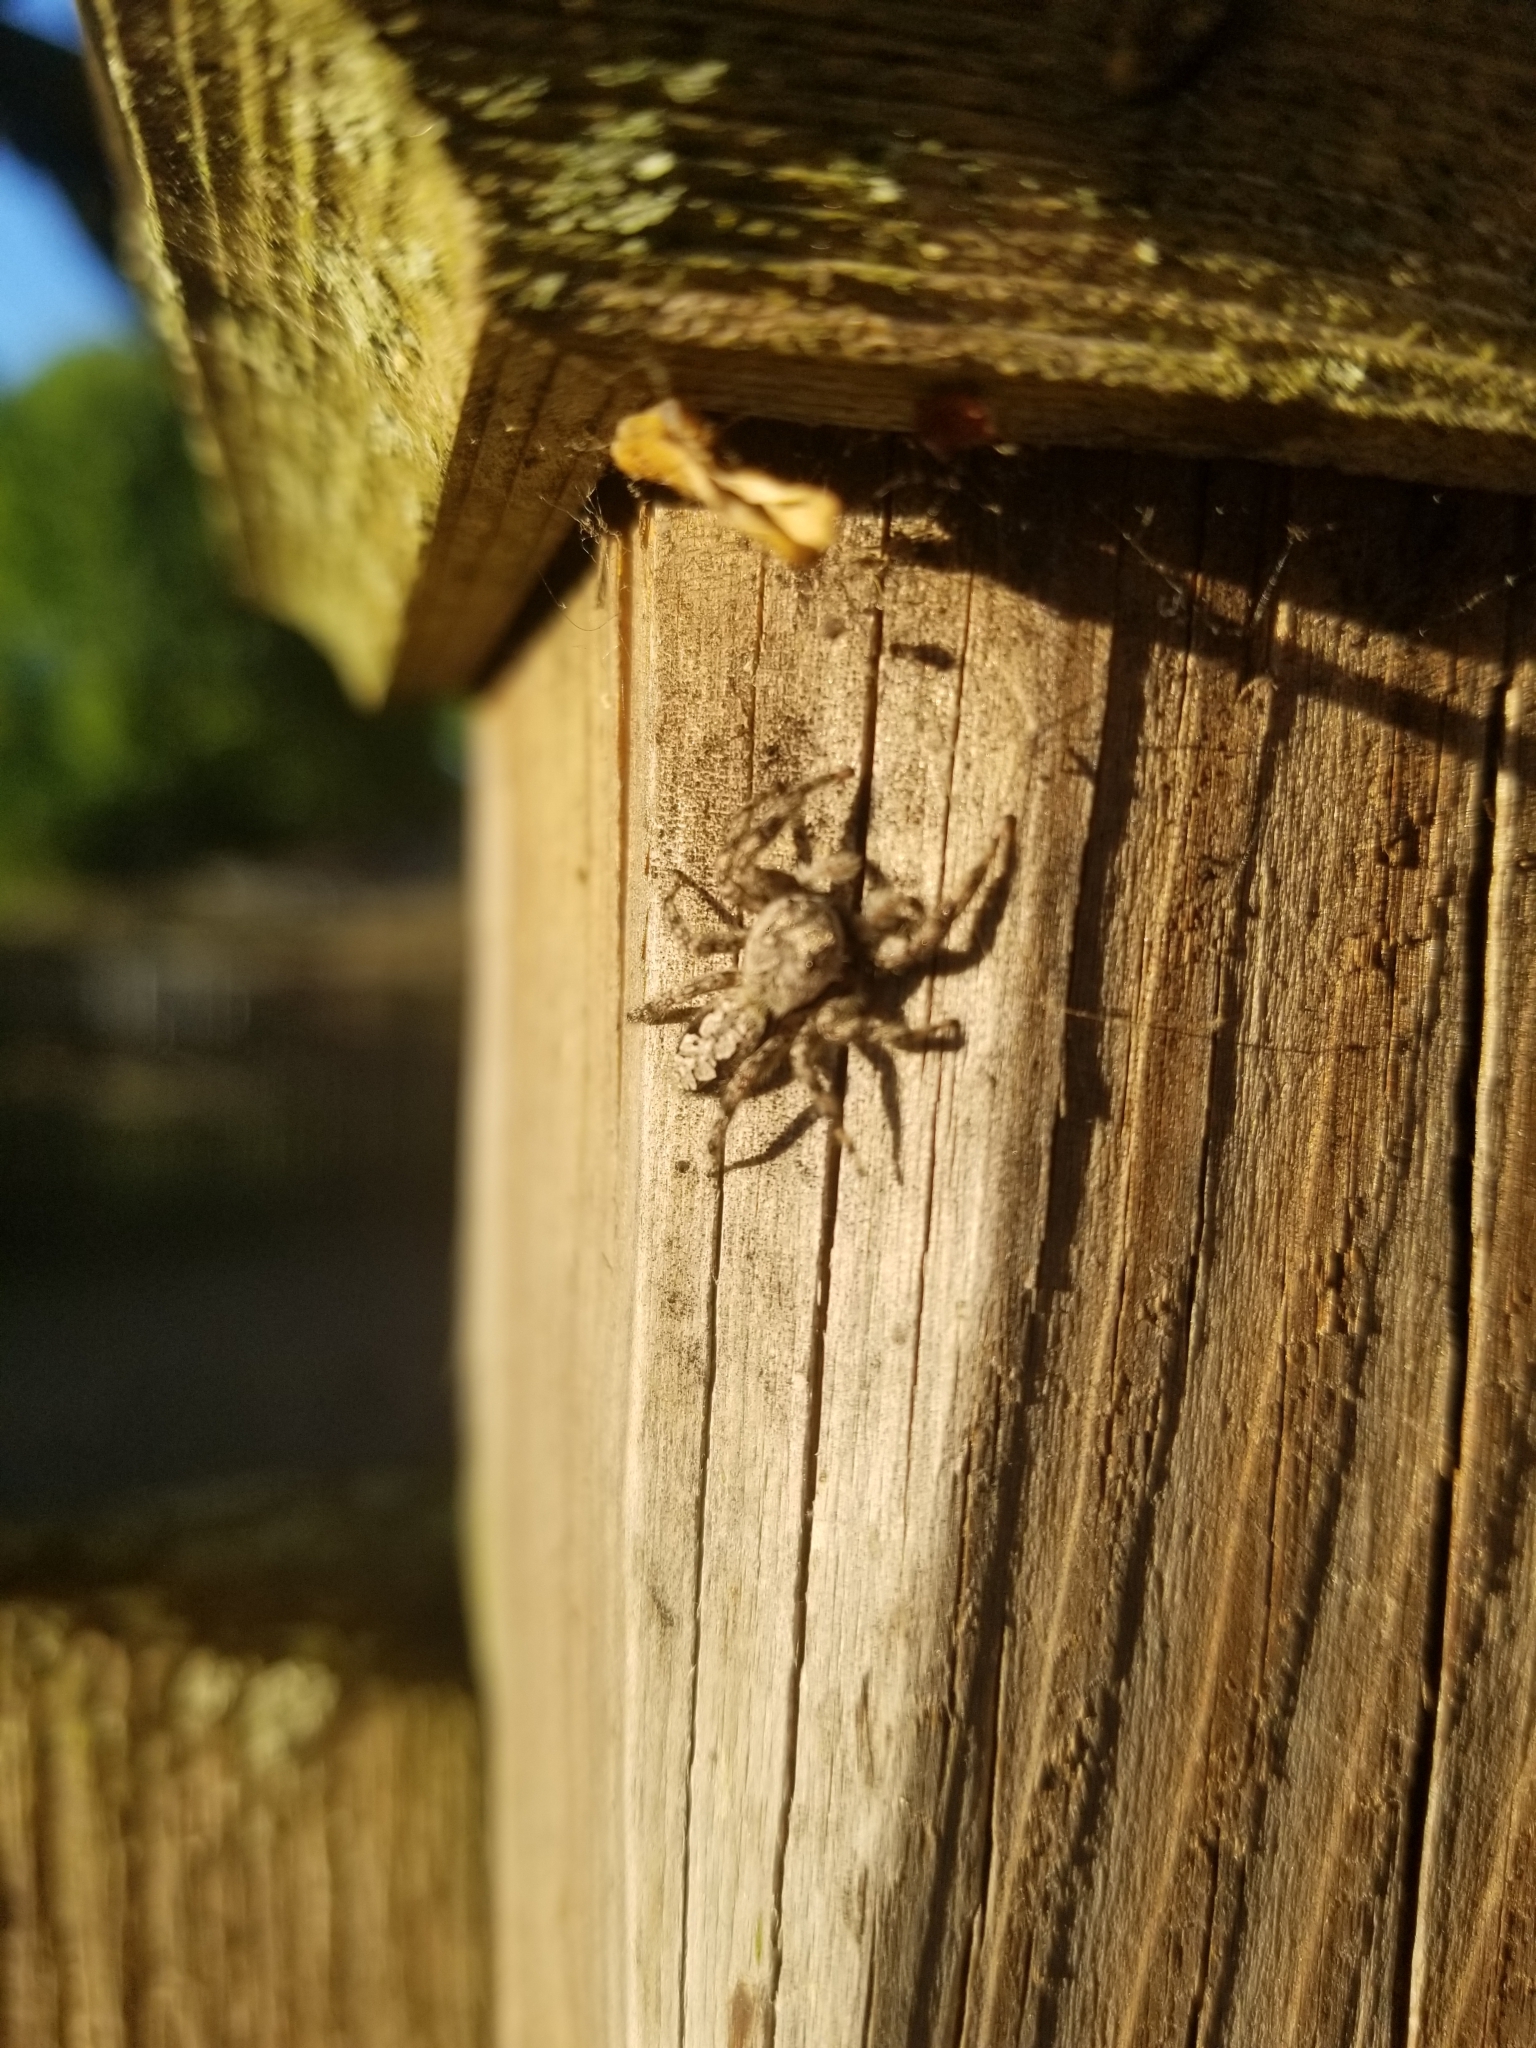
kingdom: Animalia
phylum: Arthropoda
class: Arachnida
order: Araneae
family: Salticidae
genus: Platycryptus
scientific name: Platycryptus undatus
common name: Tan jumping spider
